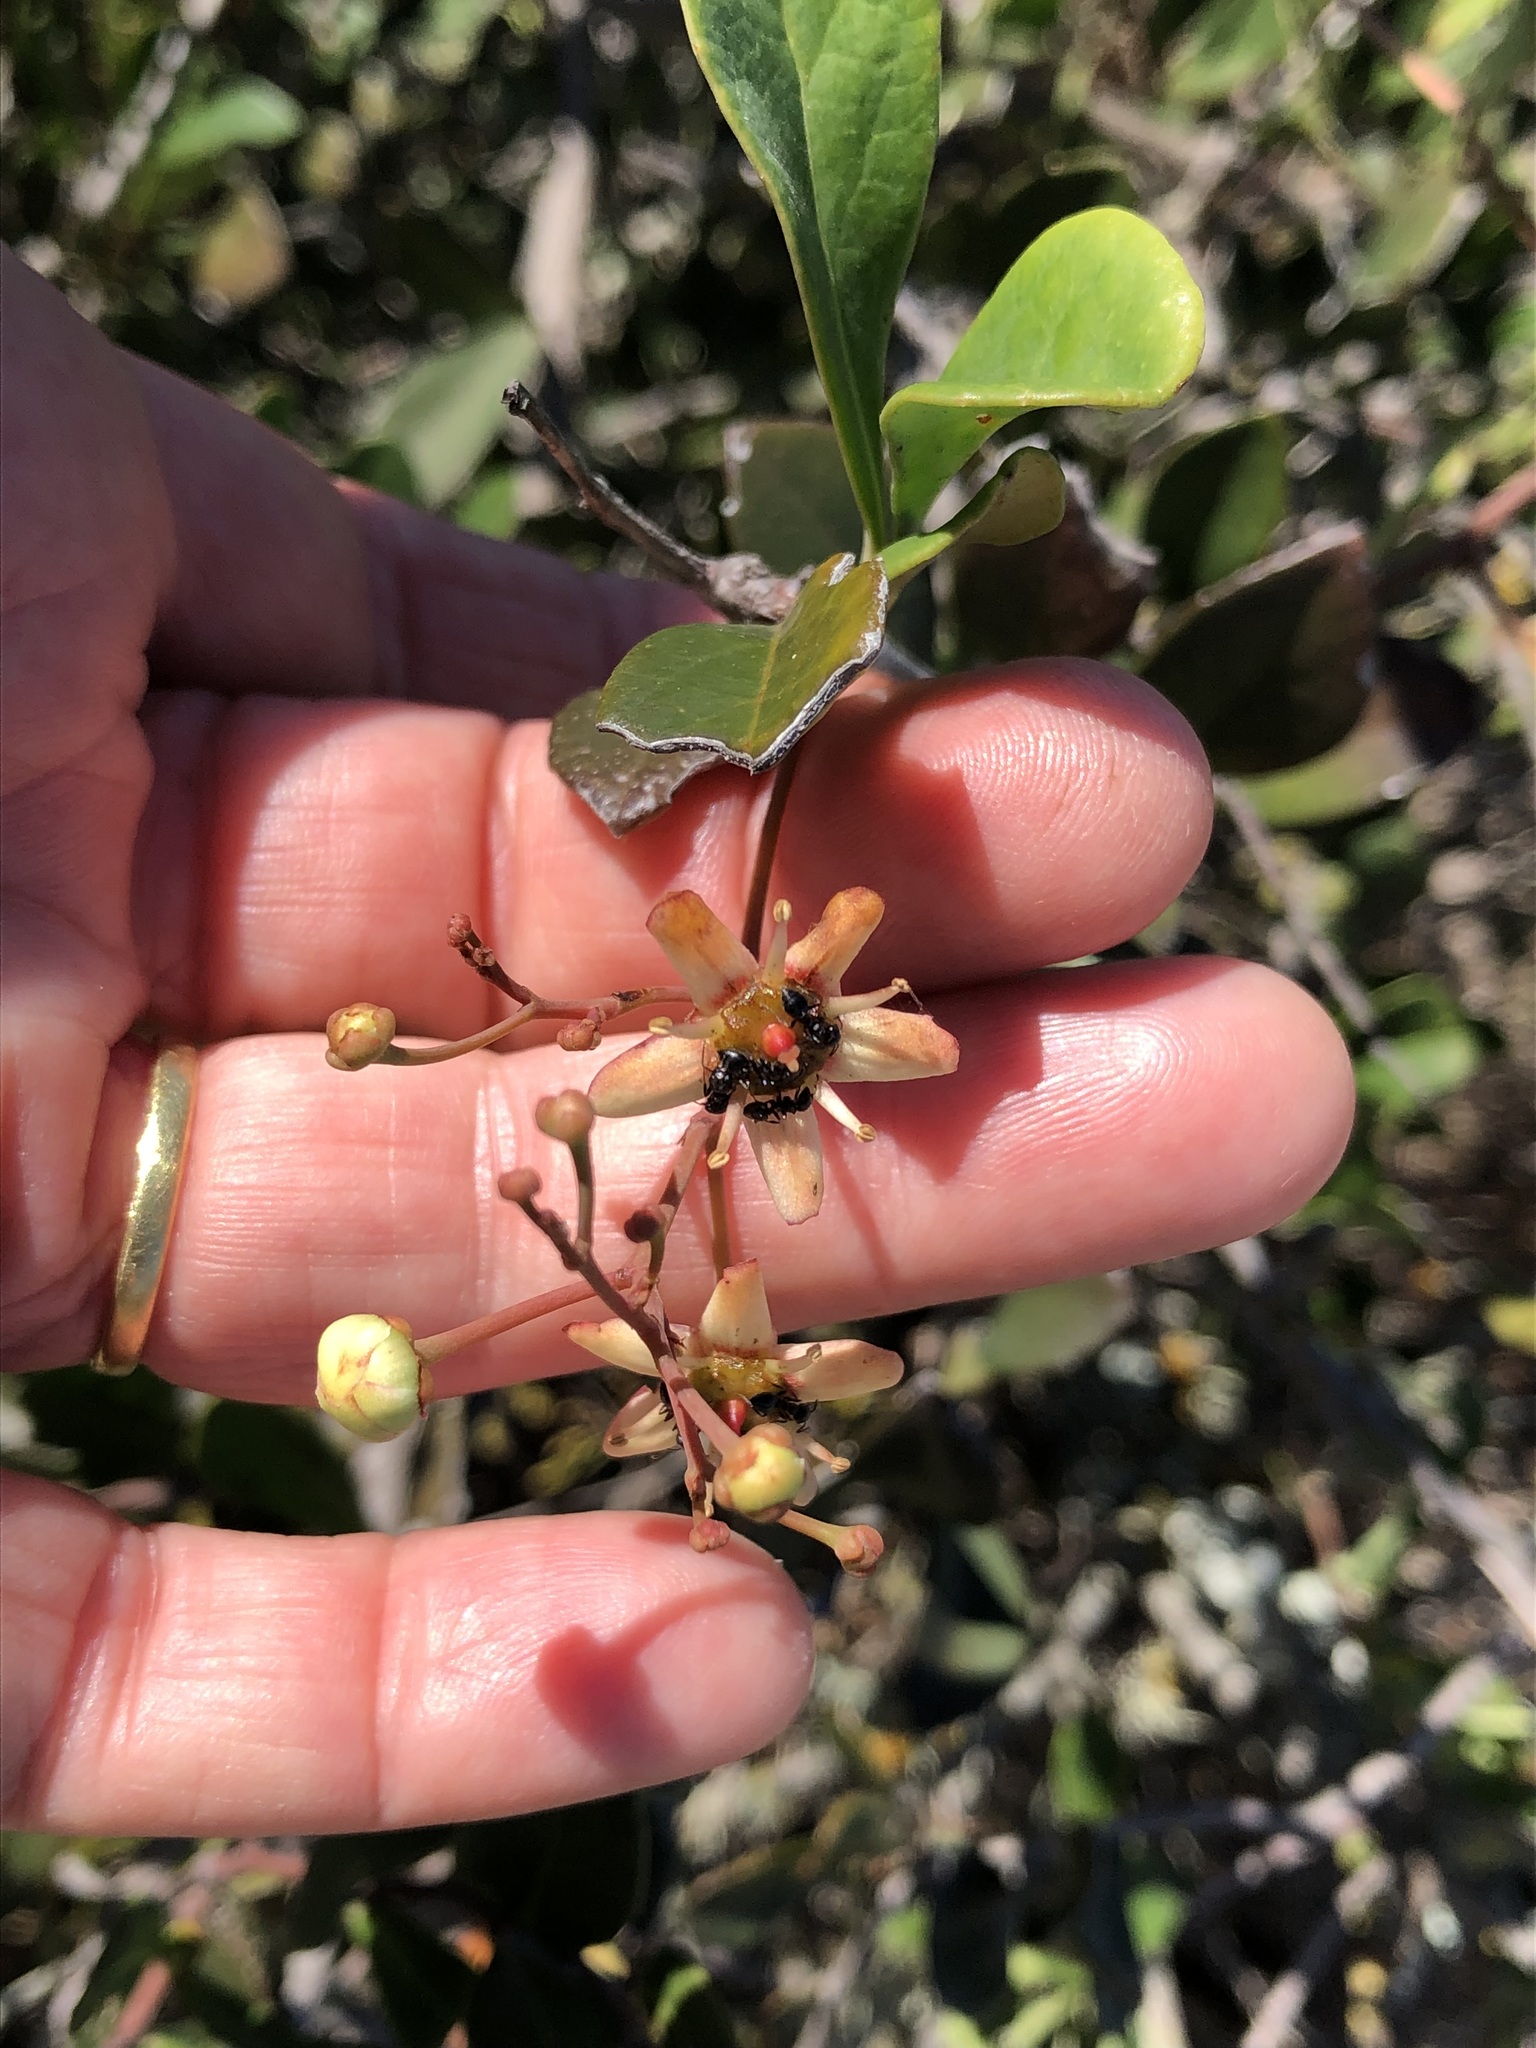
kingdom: Plantae
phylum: Tracheophyta
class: Magnoliopsida
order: Celastrales
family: Celastraceae
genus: Putterlickia
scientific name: Putterlickia pyracantha
